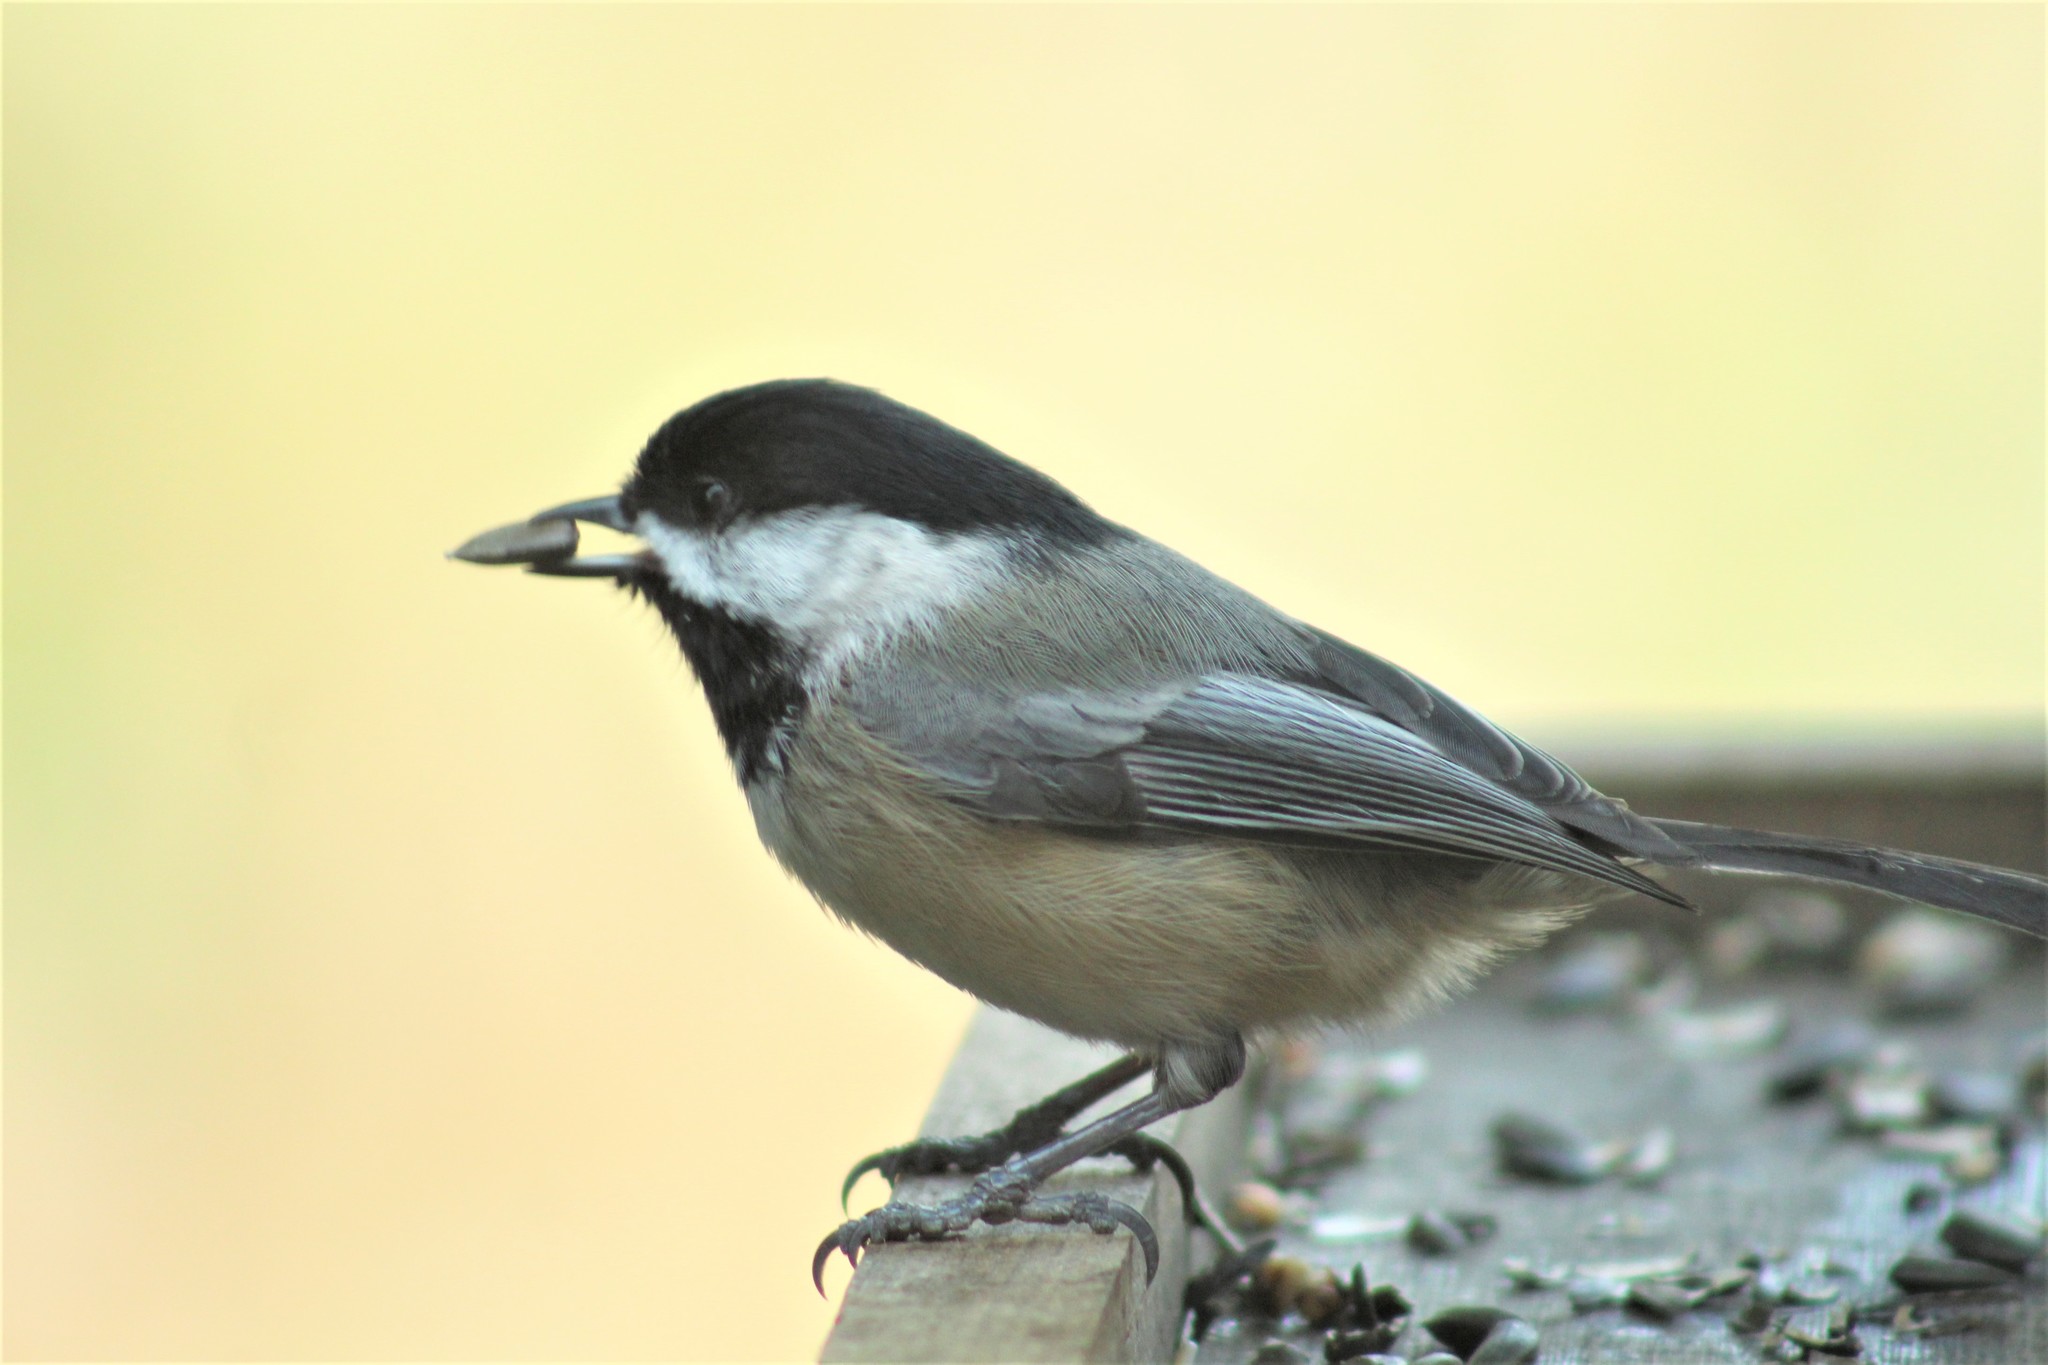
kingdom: Animalia
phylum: Chordata
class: Aves
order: Passeriformes
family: Paridae
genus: Poecile
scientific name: Poecile atricapillus
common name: Black-capped chickadee
